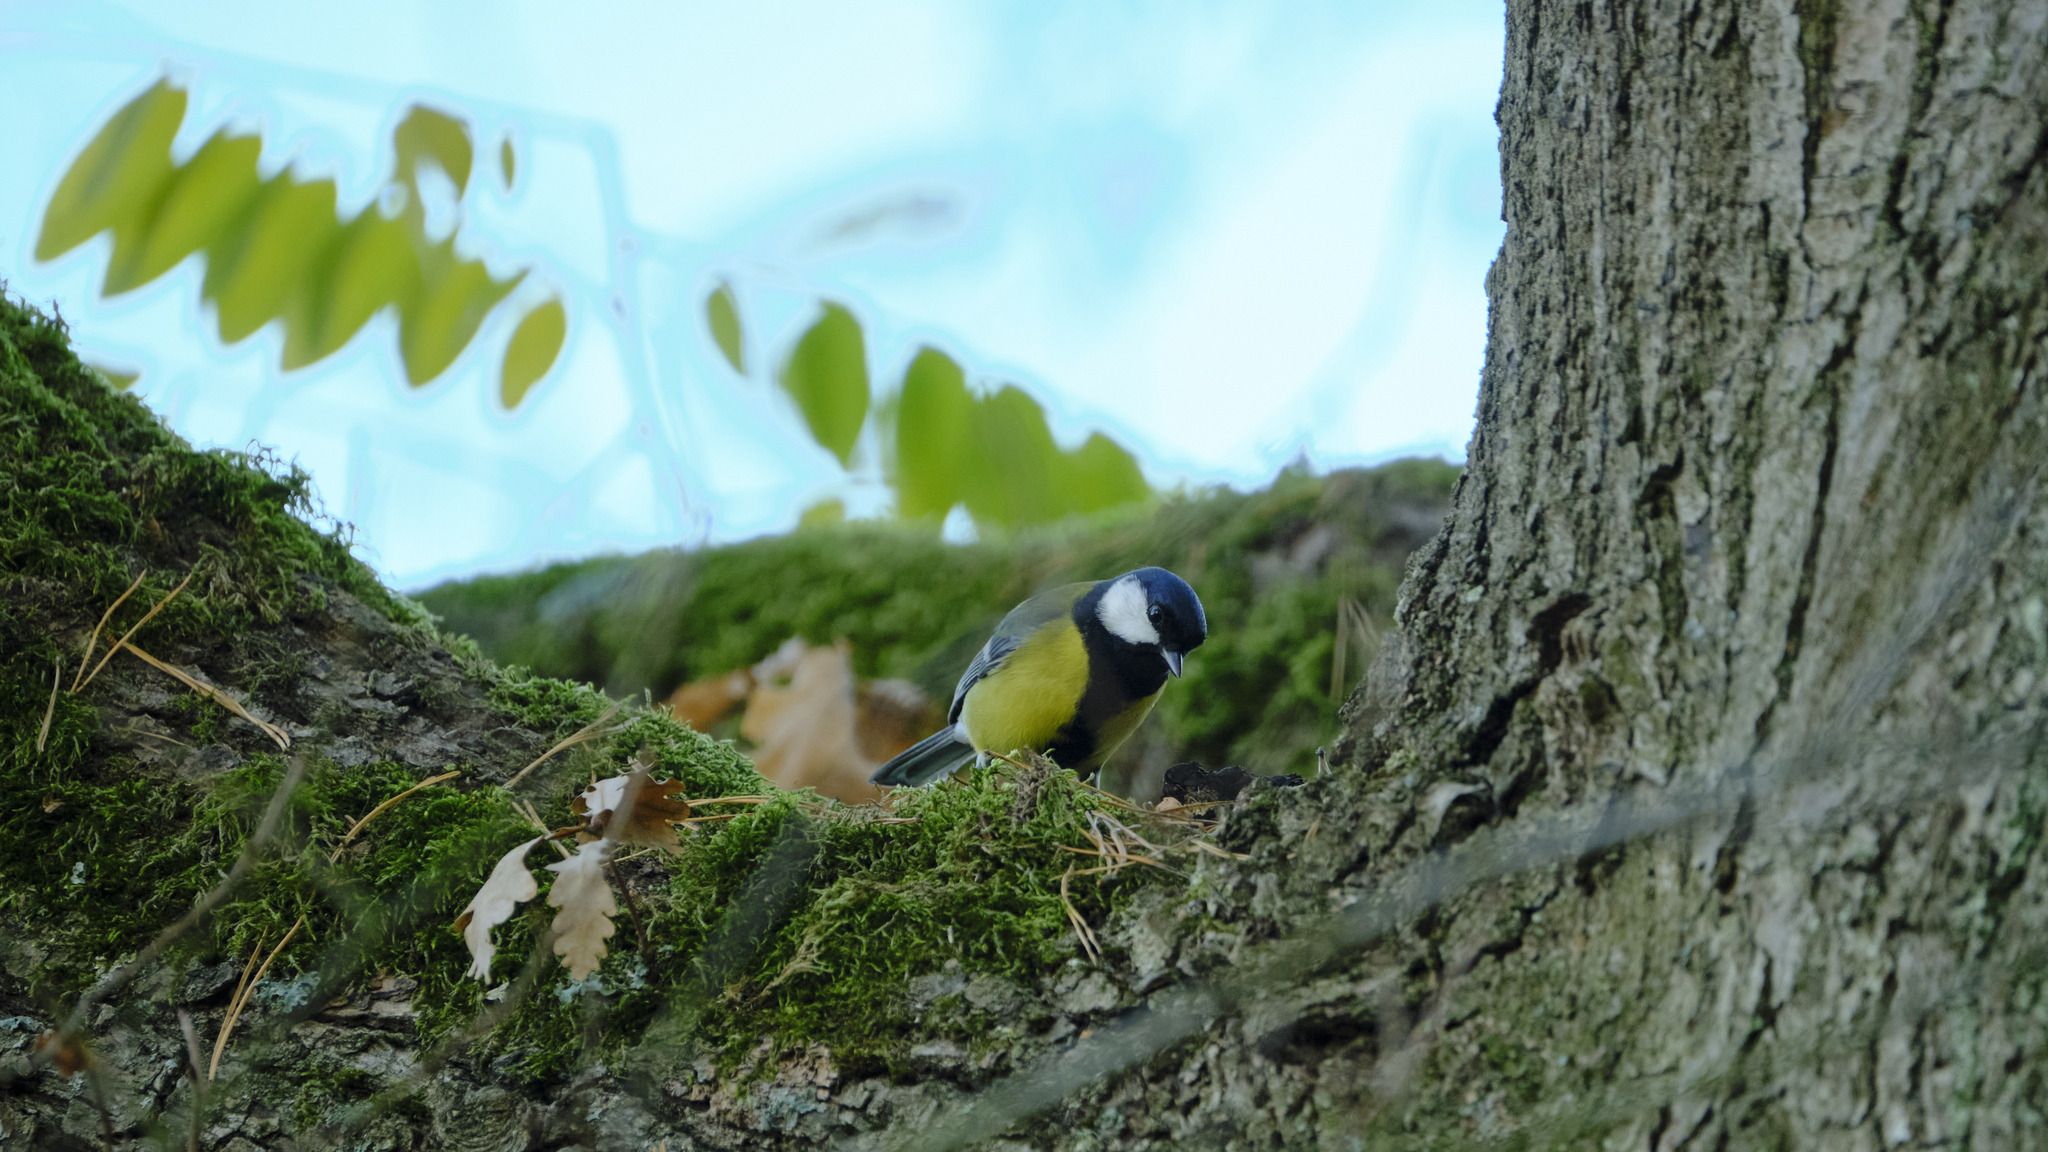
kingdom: Animalia
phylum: Chordata
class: Aves
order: Passeriformes
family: Paridae
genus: Parus
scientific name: Parus major
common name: Great tit
